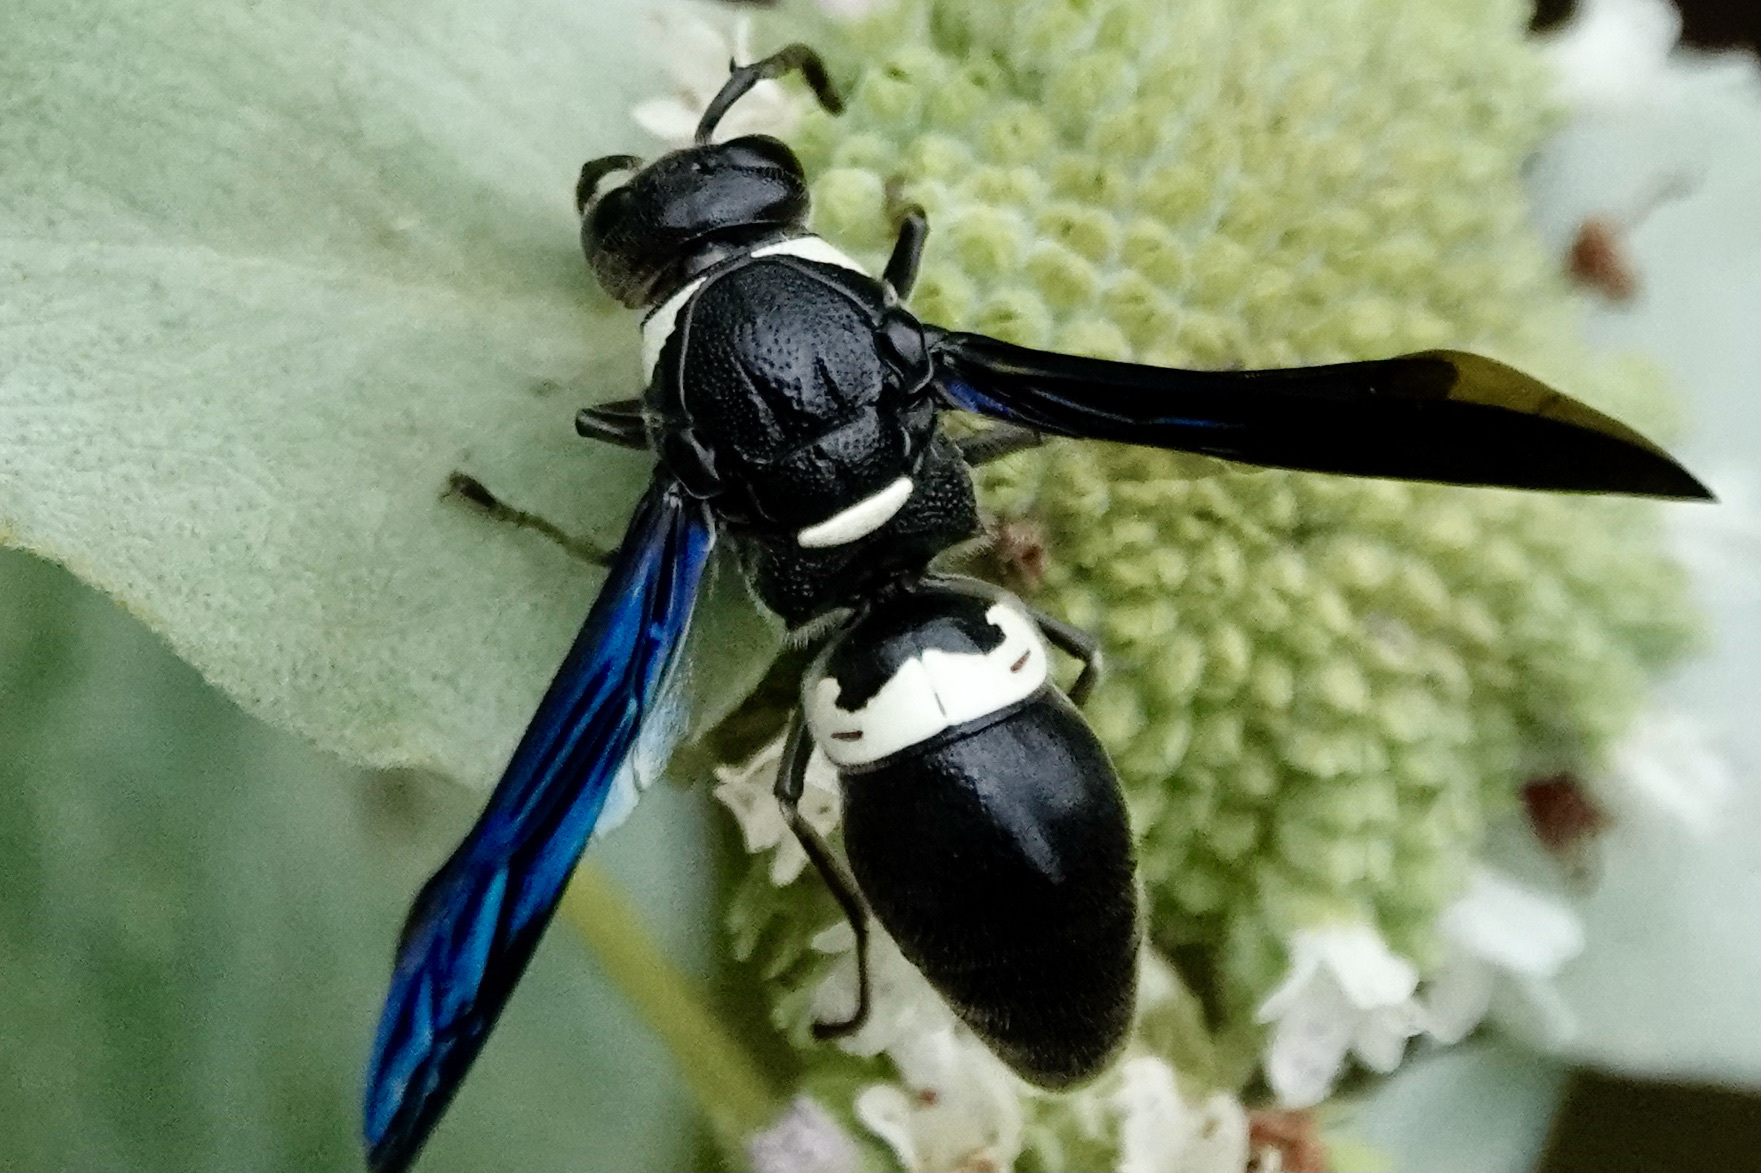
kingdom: Animalia
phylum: Arthropoda
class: Insecta
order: Hymenoptera
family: Eumenidae
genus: Monobia
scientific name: Monobia quadridens
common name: Four-toothed mason wasp
